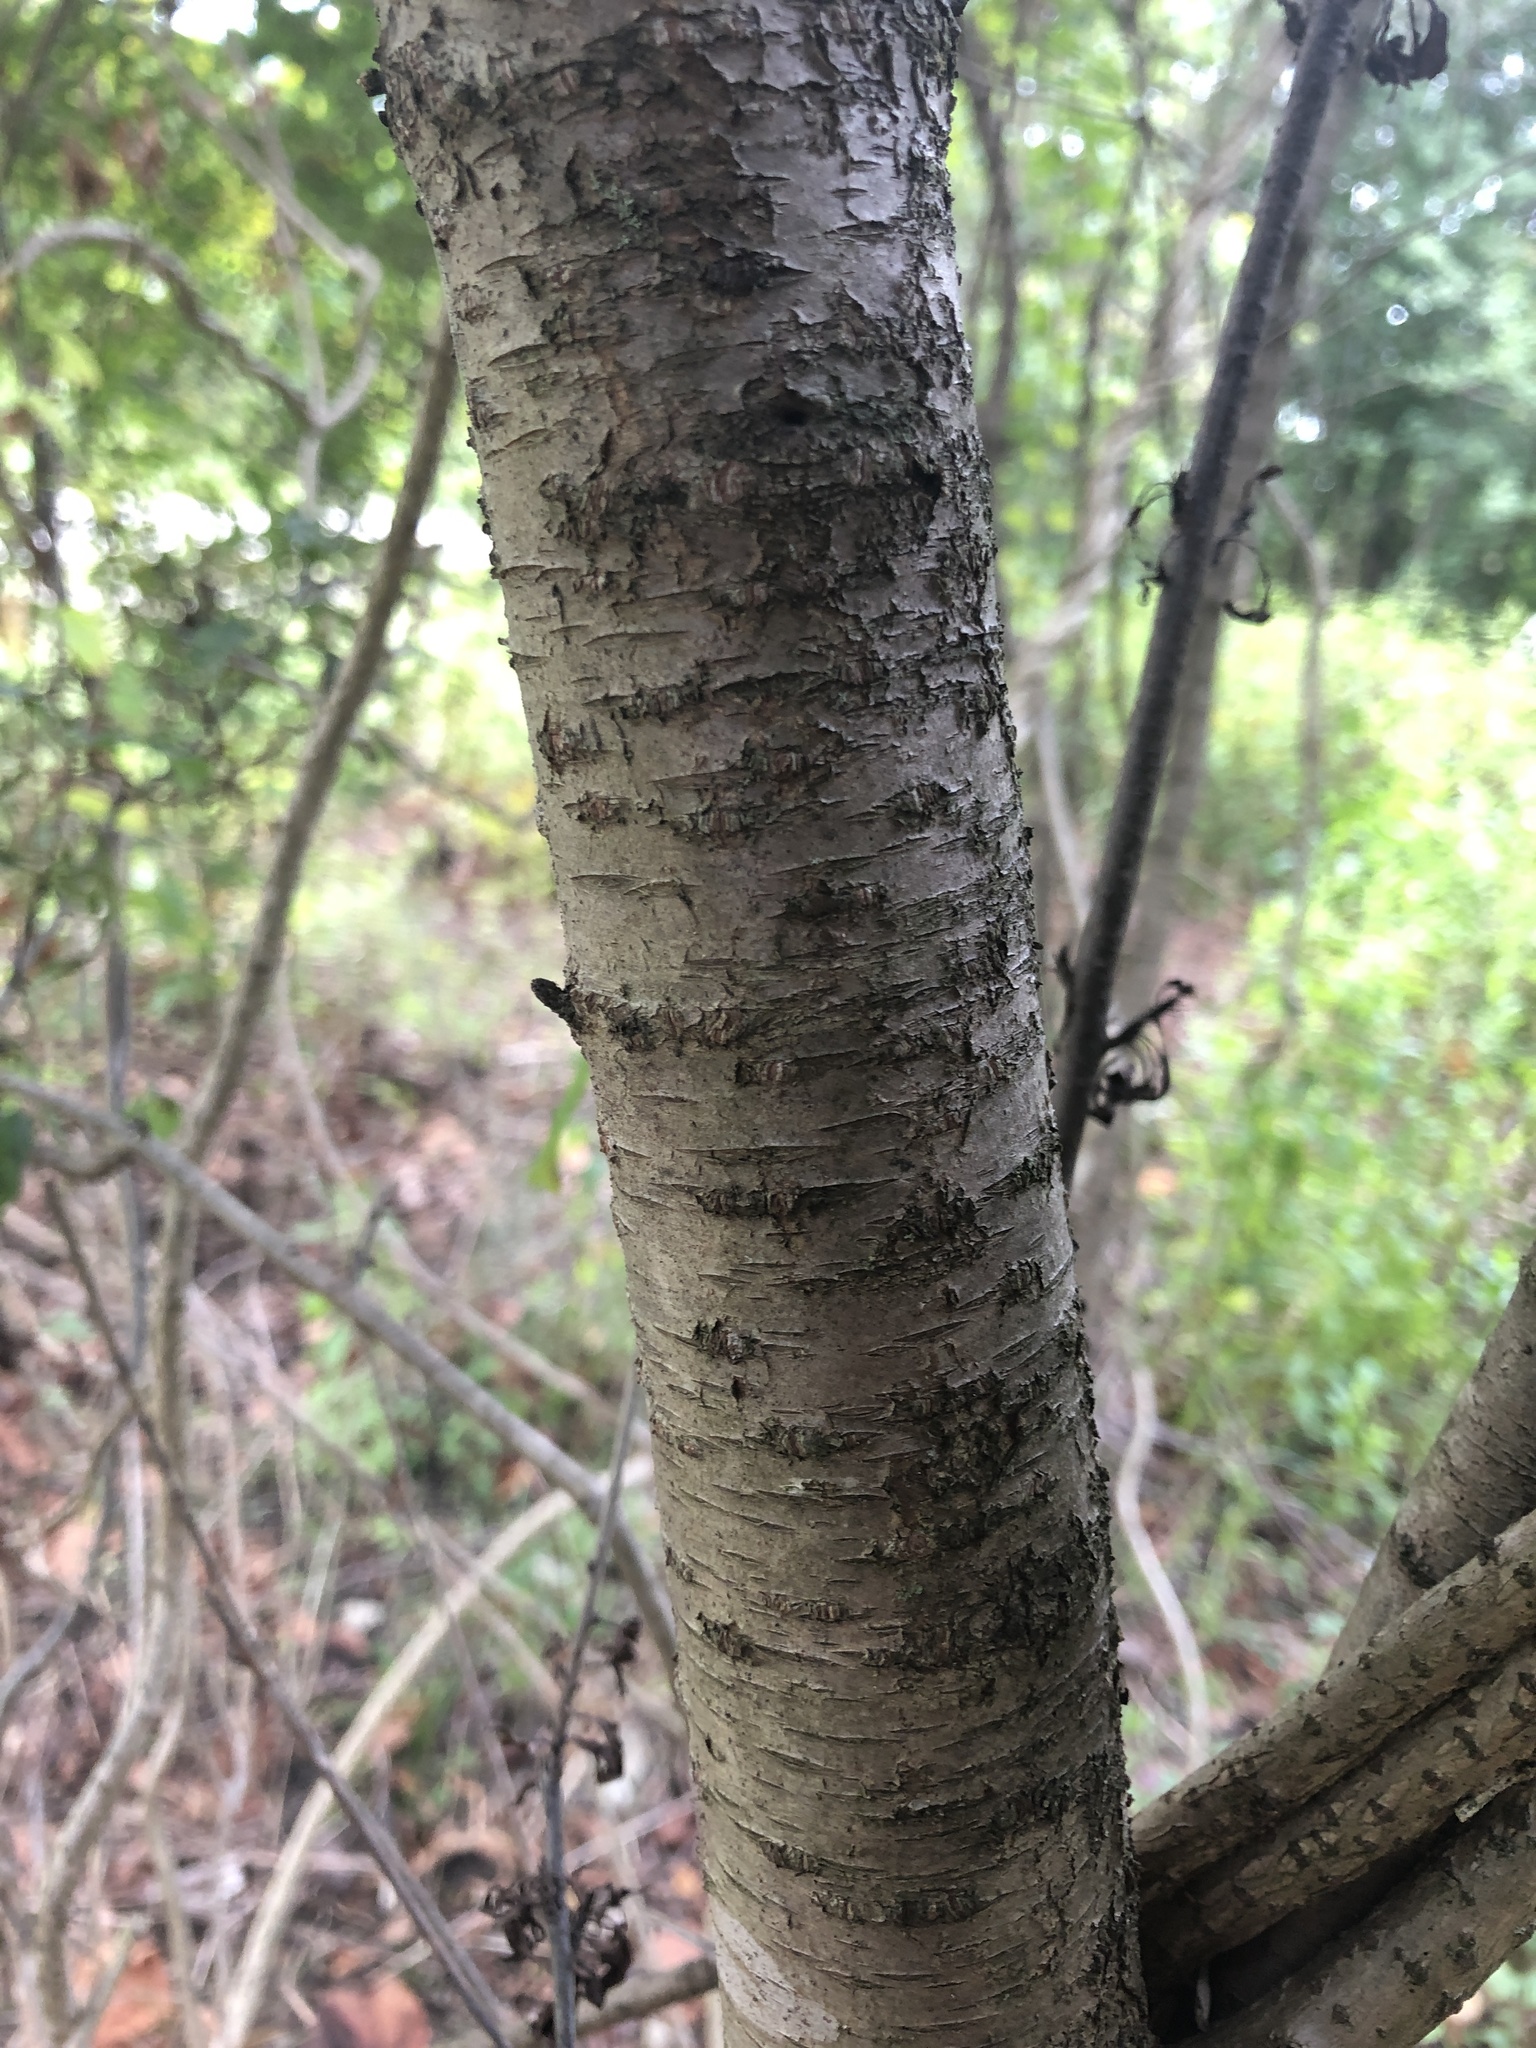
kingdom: Plantae
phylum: Tracheophyta
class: Magnoliopsida
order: Rosales
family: Rhamnaceae
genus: Rhamnus
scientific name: Rhamnus cathartica
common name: Common buckthorn
